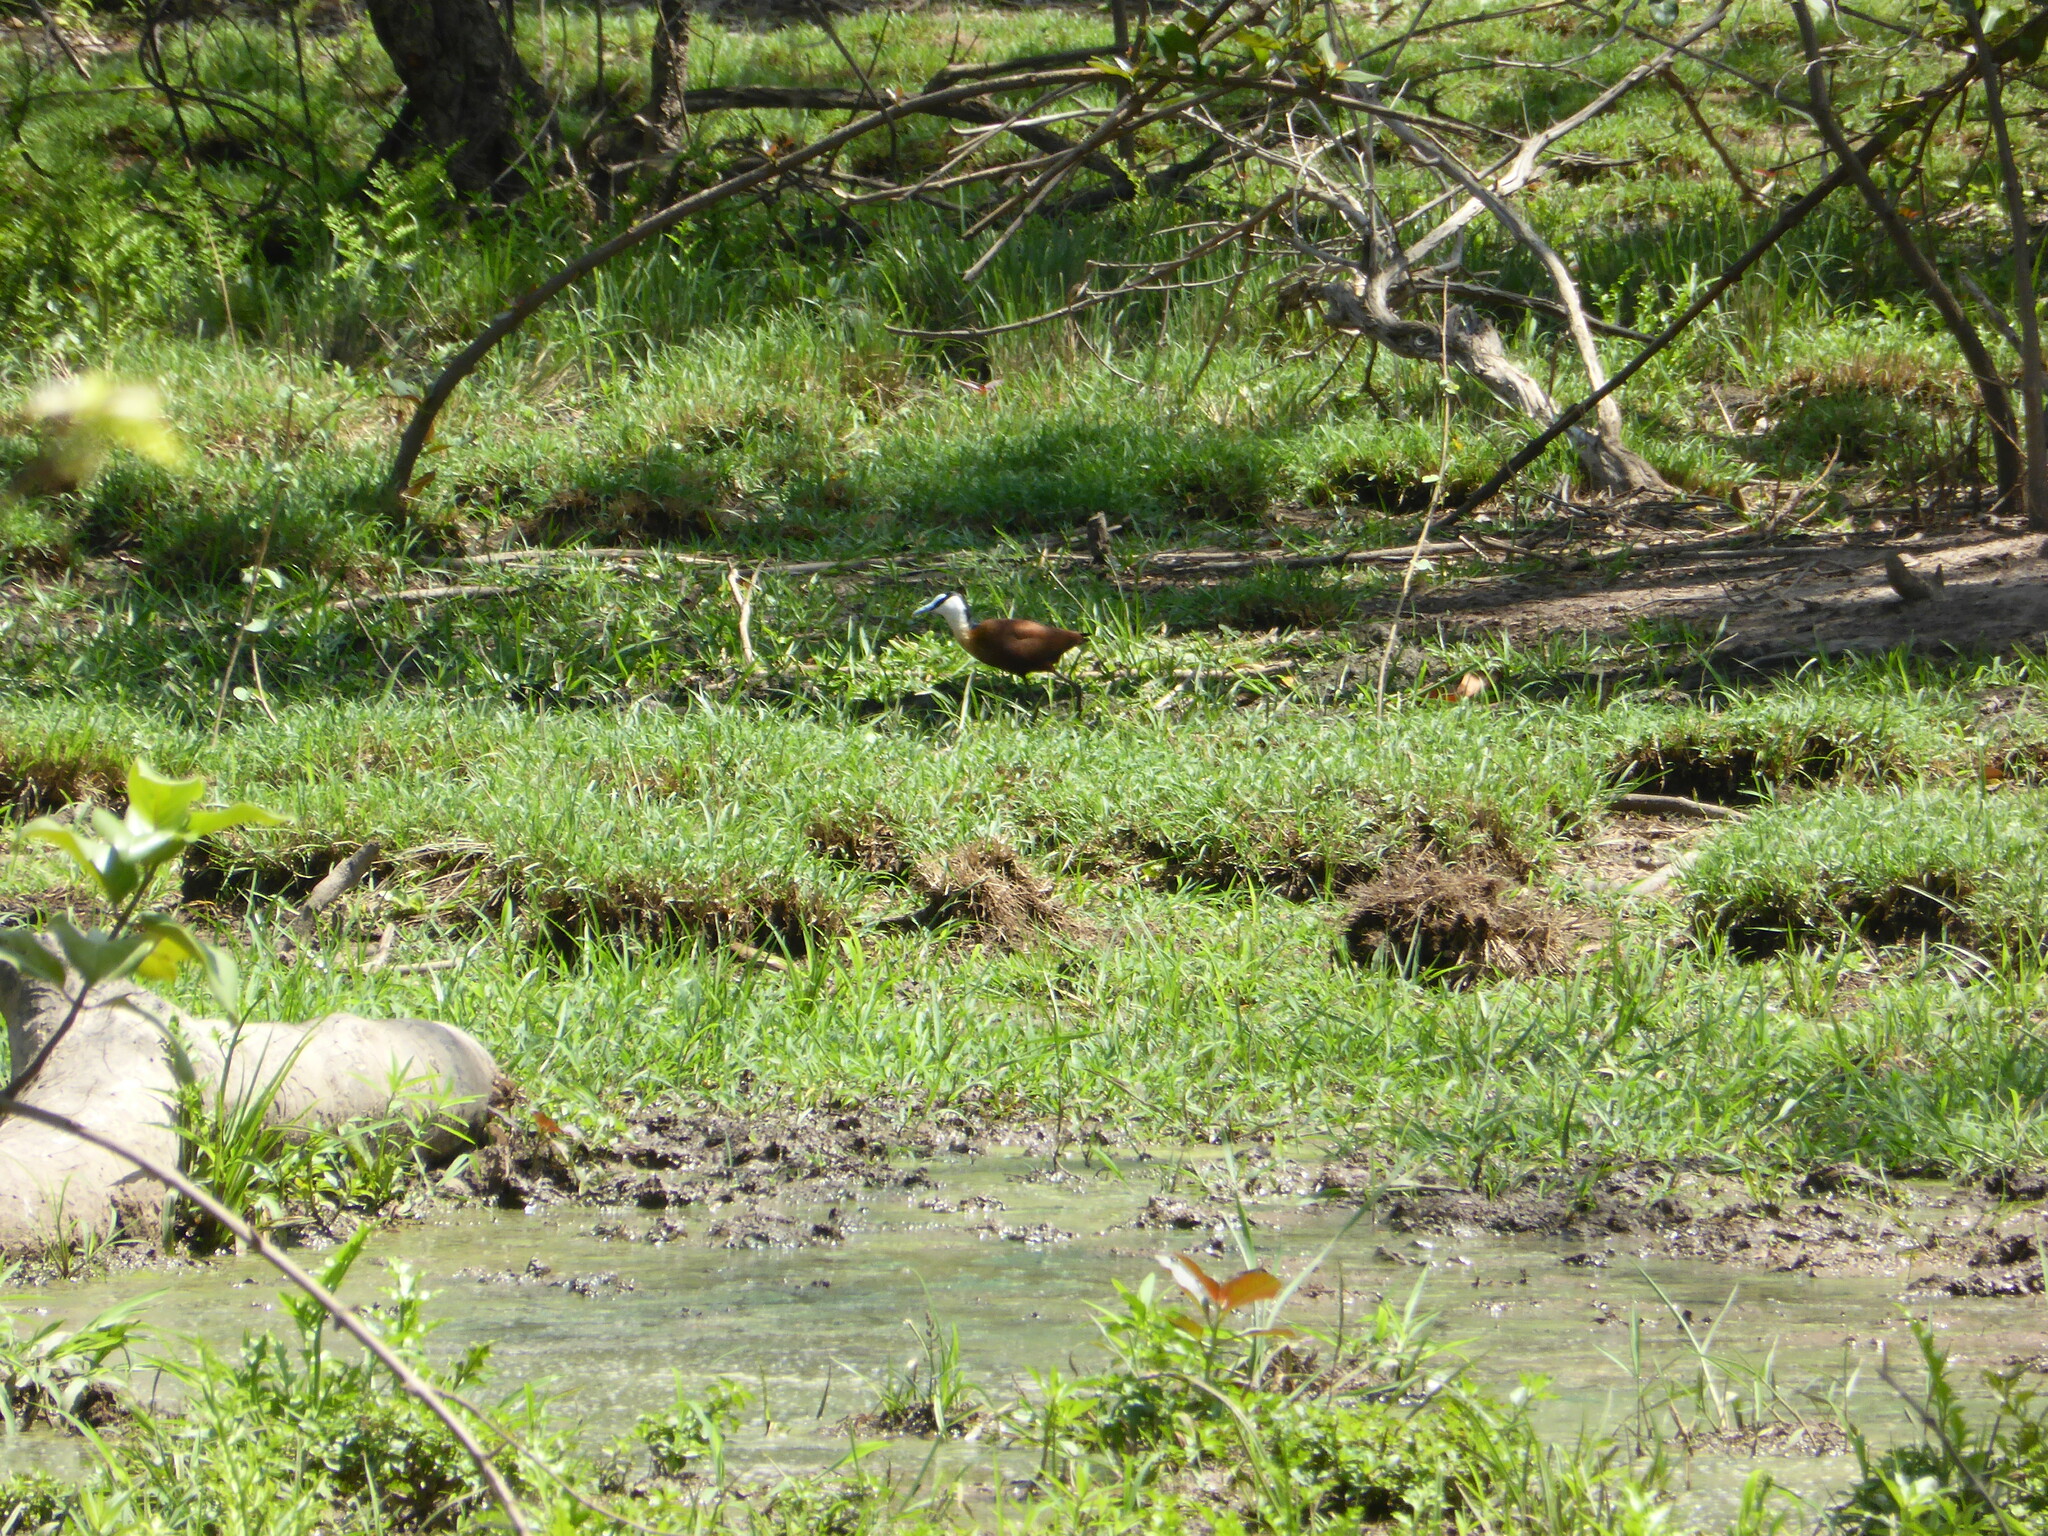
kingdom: Animalia
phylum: Chordata
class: Aves
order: Charadriiformes
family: Jacanidae
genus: Actophilornis
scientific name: Actophilornis africanus
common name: African jacana
